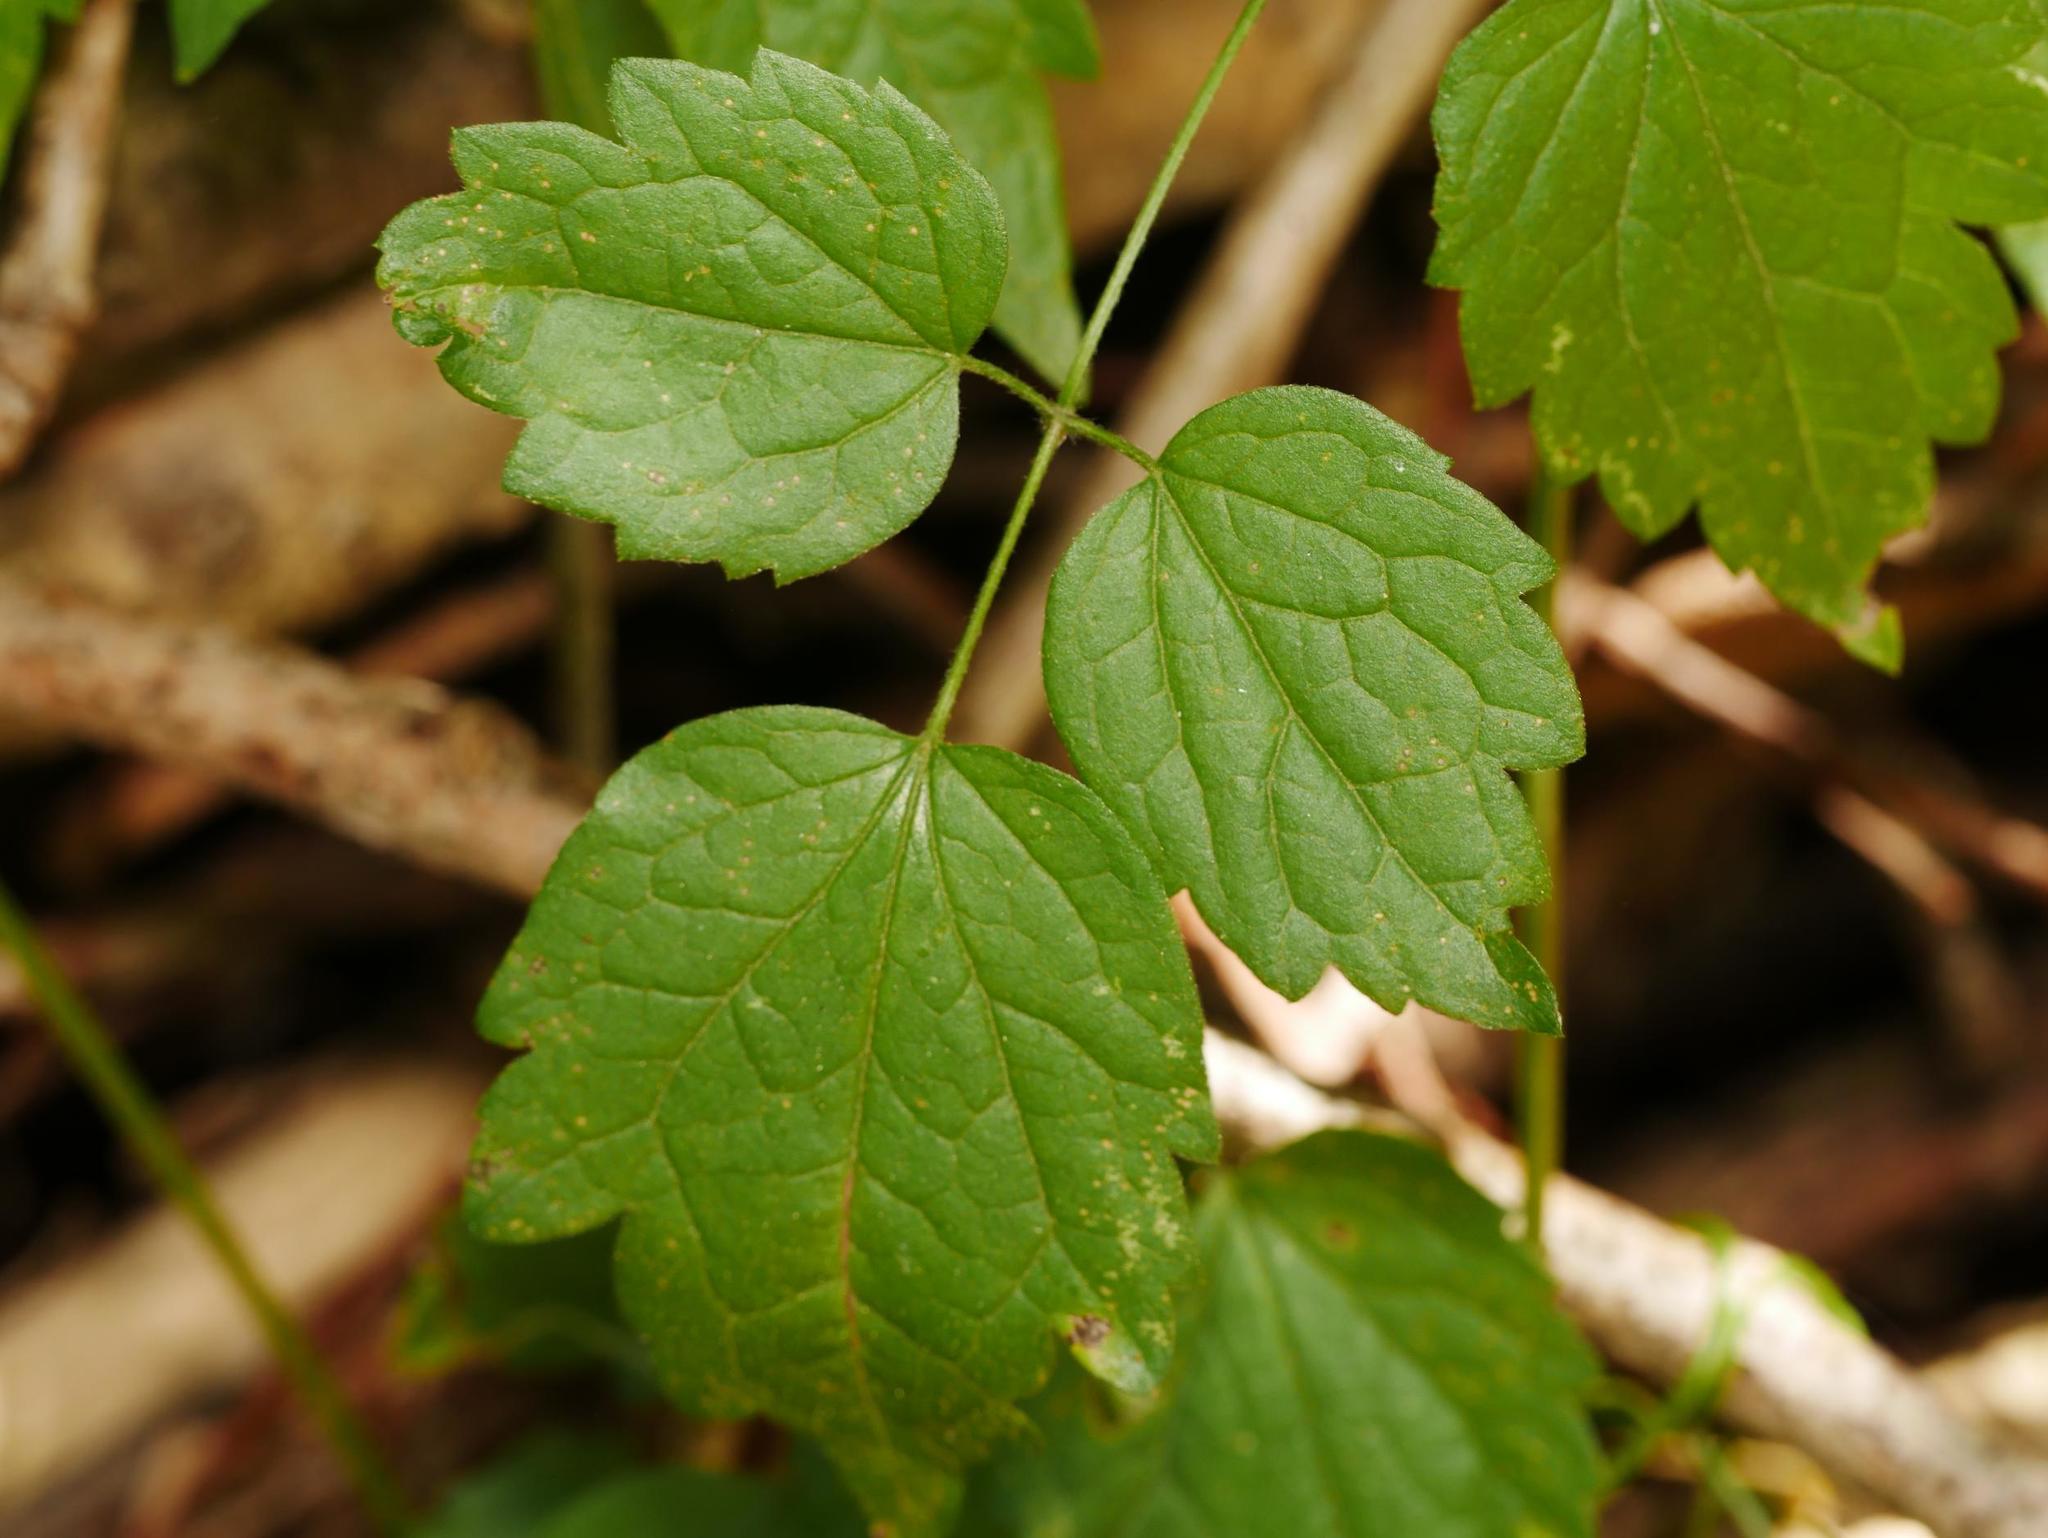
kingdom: Plantae
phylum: Tracheophyta
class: Magnoliopsida
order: Ranunculales
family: Ranunculaceae
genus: Clematis
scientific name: Clematis vitalba
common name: Evergreen clematis
